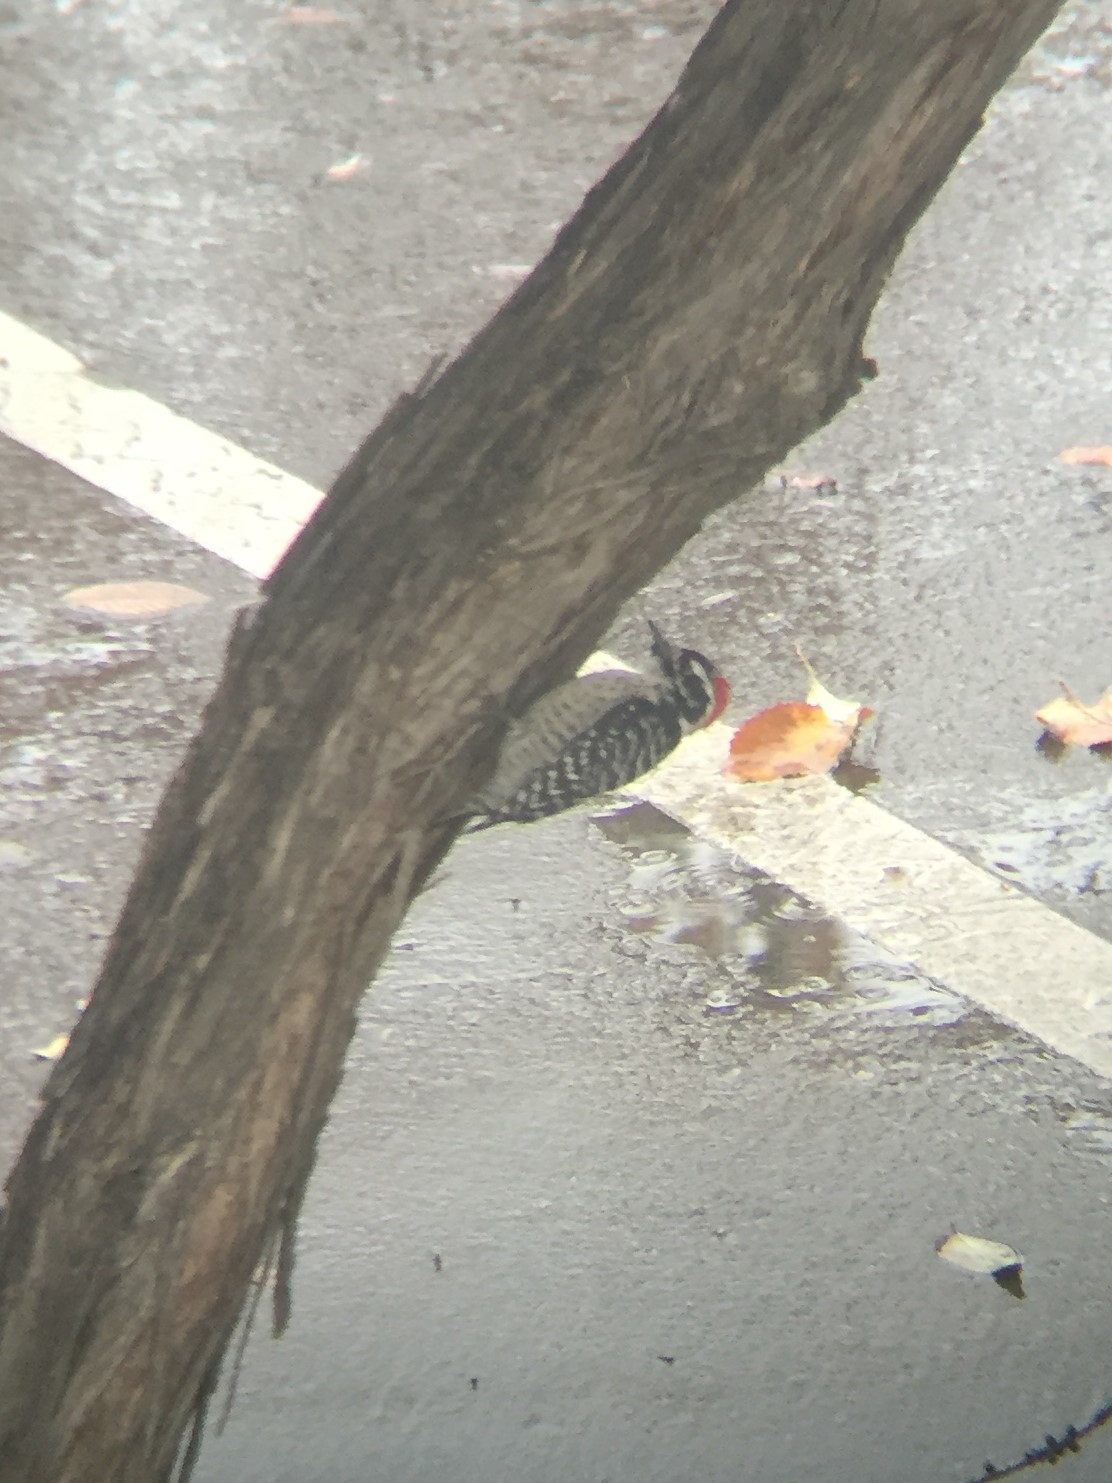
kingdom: Animalia
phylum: Chordata
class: Aves
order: Piciformes
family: Picidae
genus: Dryobates
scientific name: Dryobates nuttallii
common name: Nuttall's woodpecker
